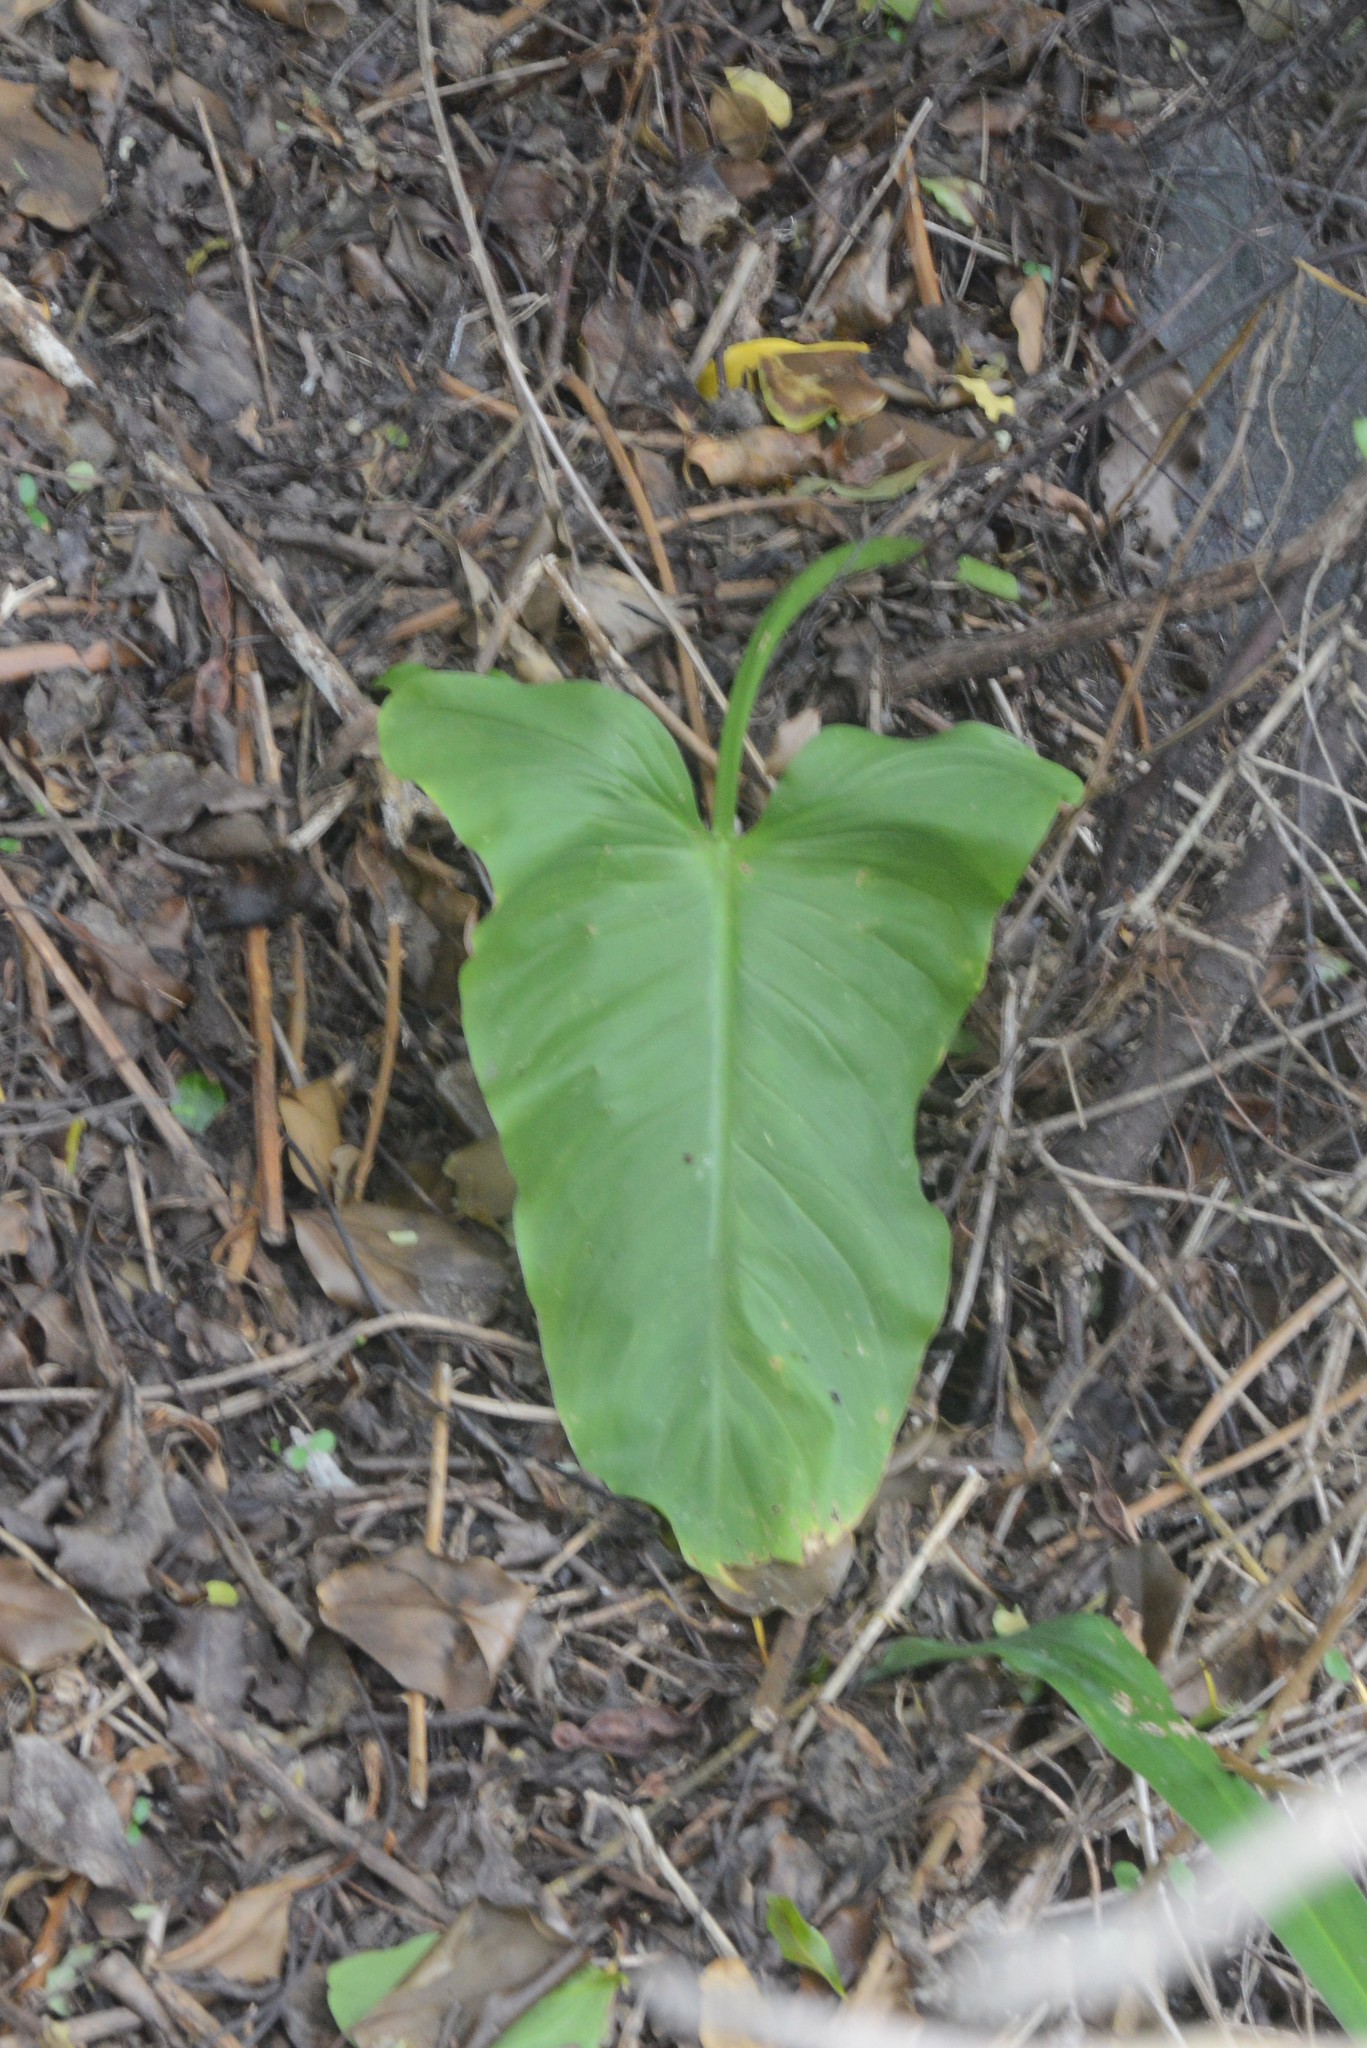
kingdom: Plantae
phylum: Tracheophyta
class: Liliopsida
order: Alismatales
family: Araceae
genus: Zantedeschia
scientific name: Zantedeschia aethiopica
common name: Altar-lily
